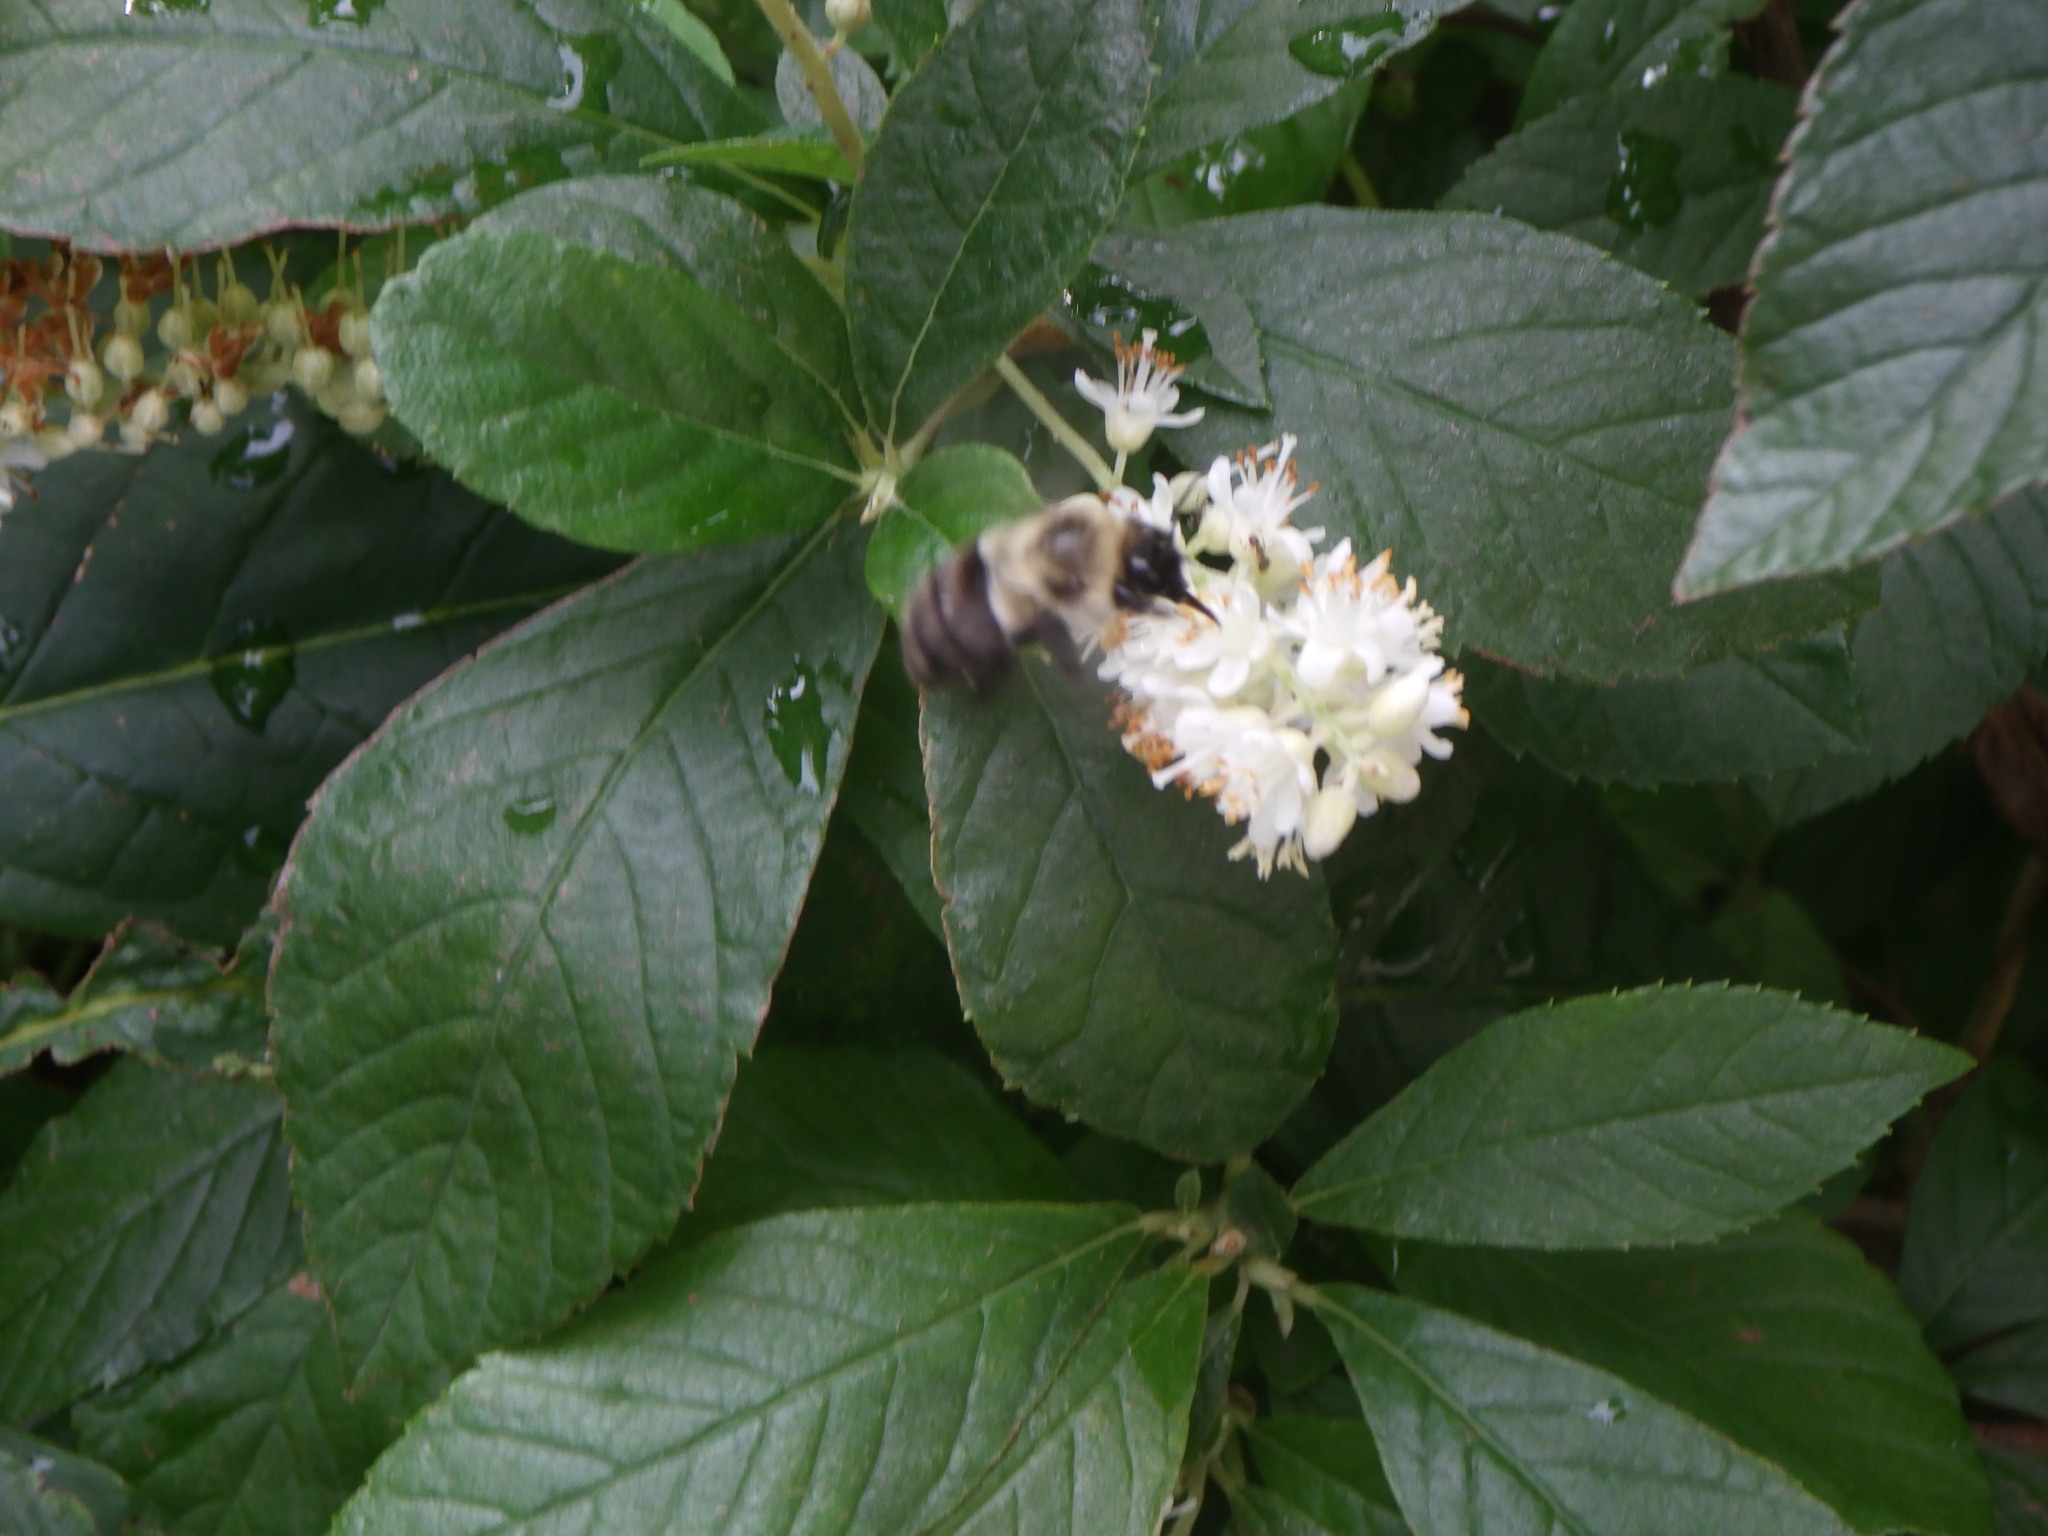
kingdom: Animalia
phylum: Arthropoda
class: Insecta
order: Hymenoptera
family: Apidae
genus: Bombus
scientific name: Bombus impatiens
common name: Common eastern bumble bee
